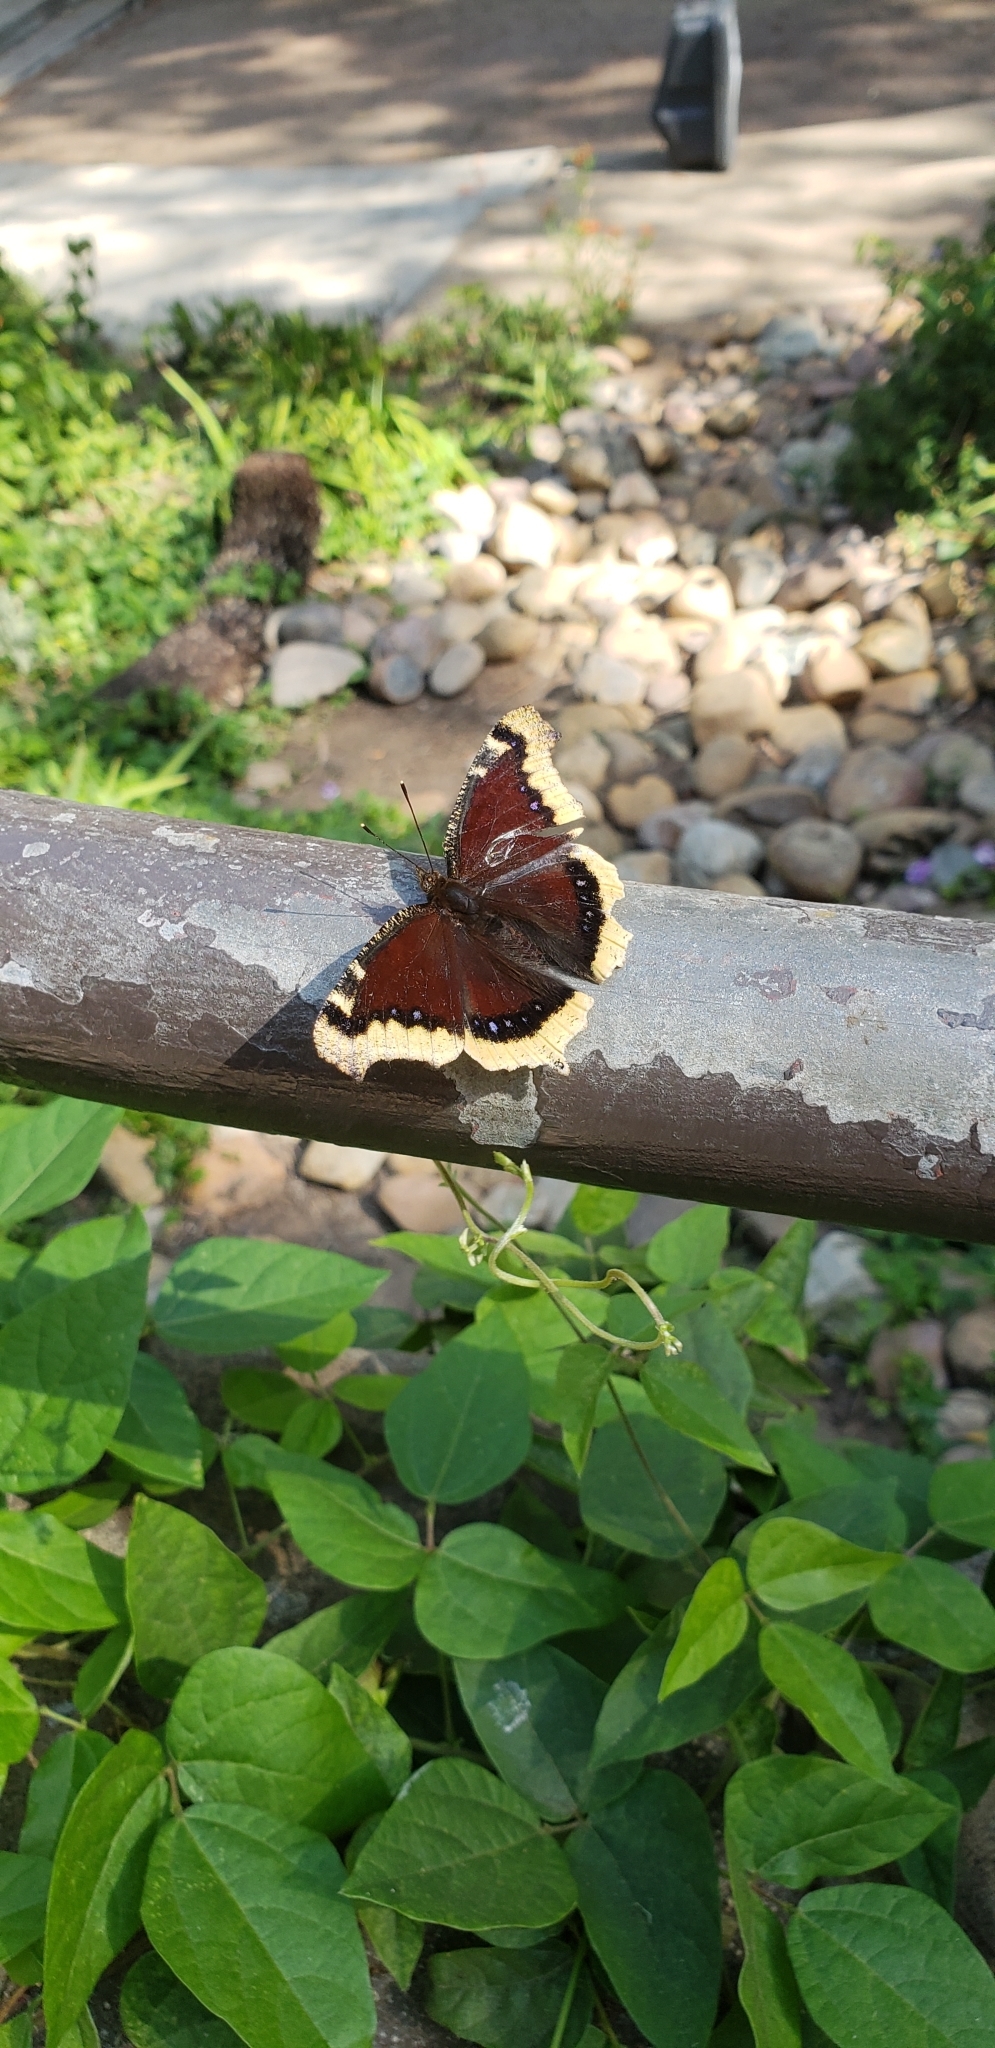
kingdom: Animalia
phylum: Arthropoda
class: Insecta
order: Lepidoptera
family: Nymphalidae
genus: Nymphalis
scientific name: Nymphalis antiopa
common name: Camberwell beauty
